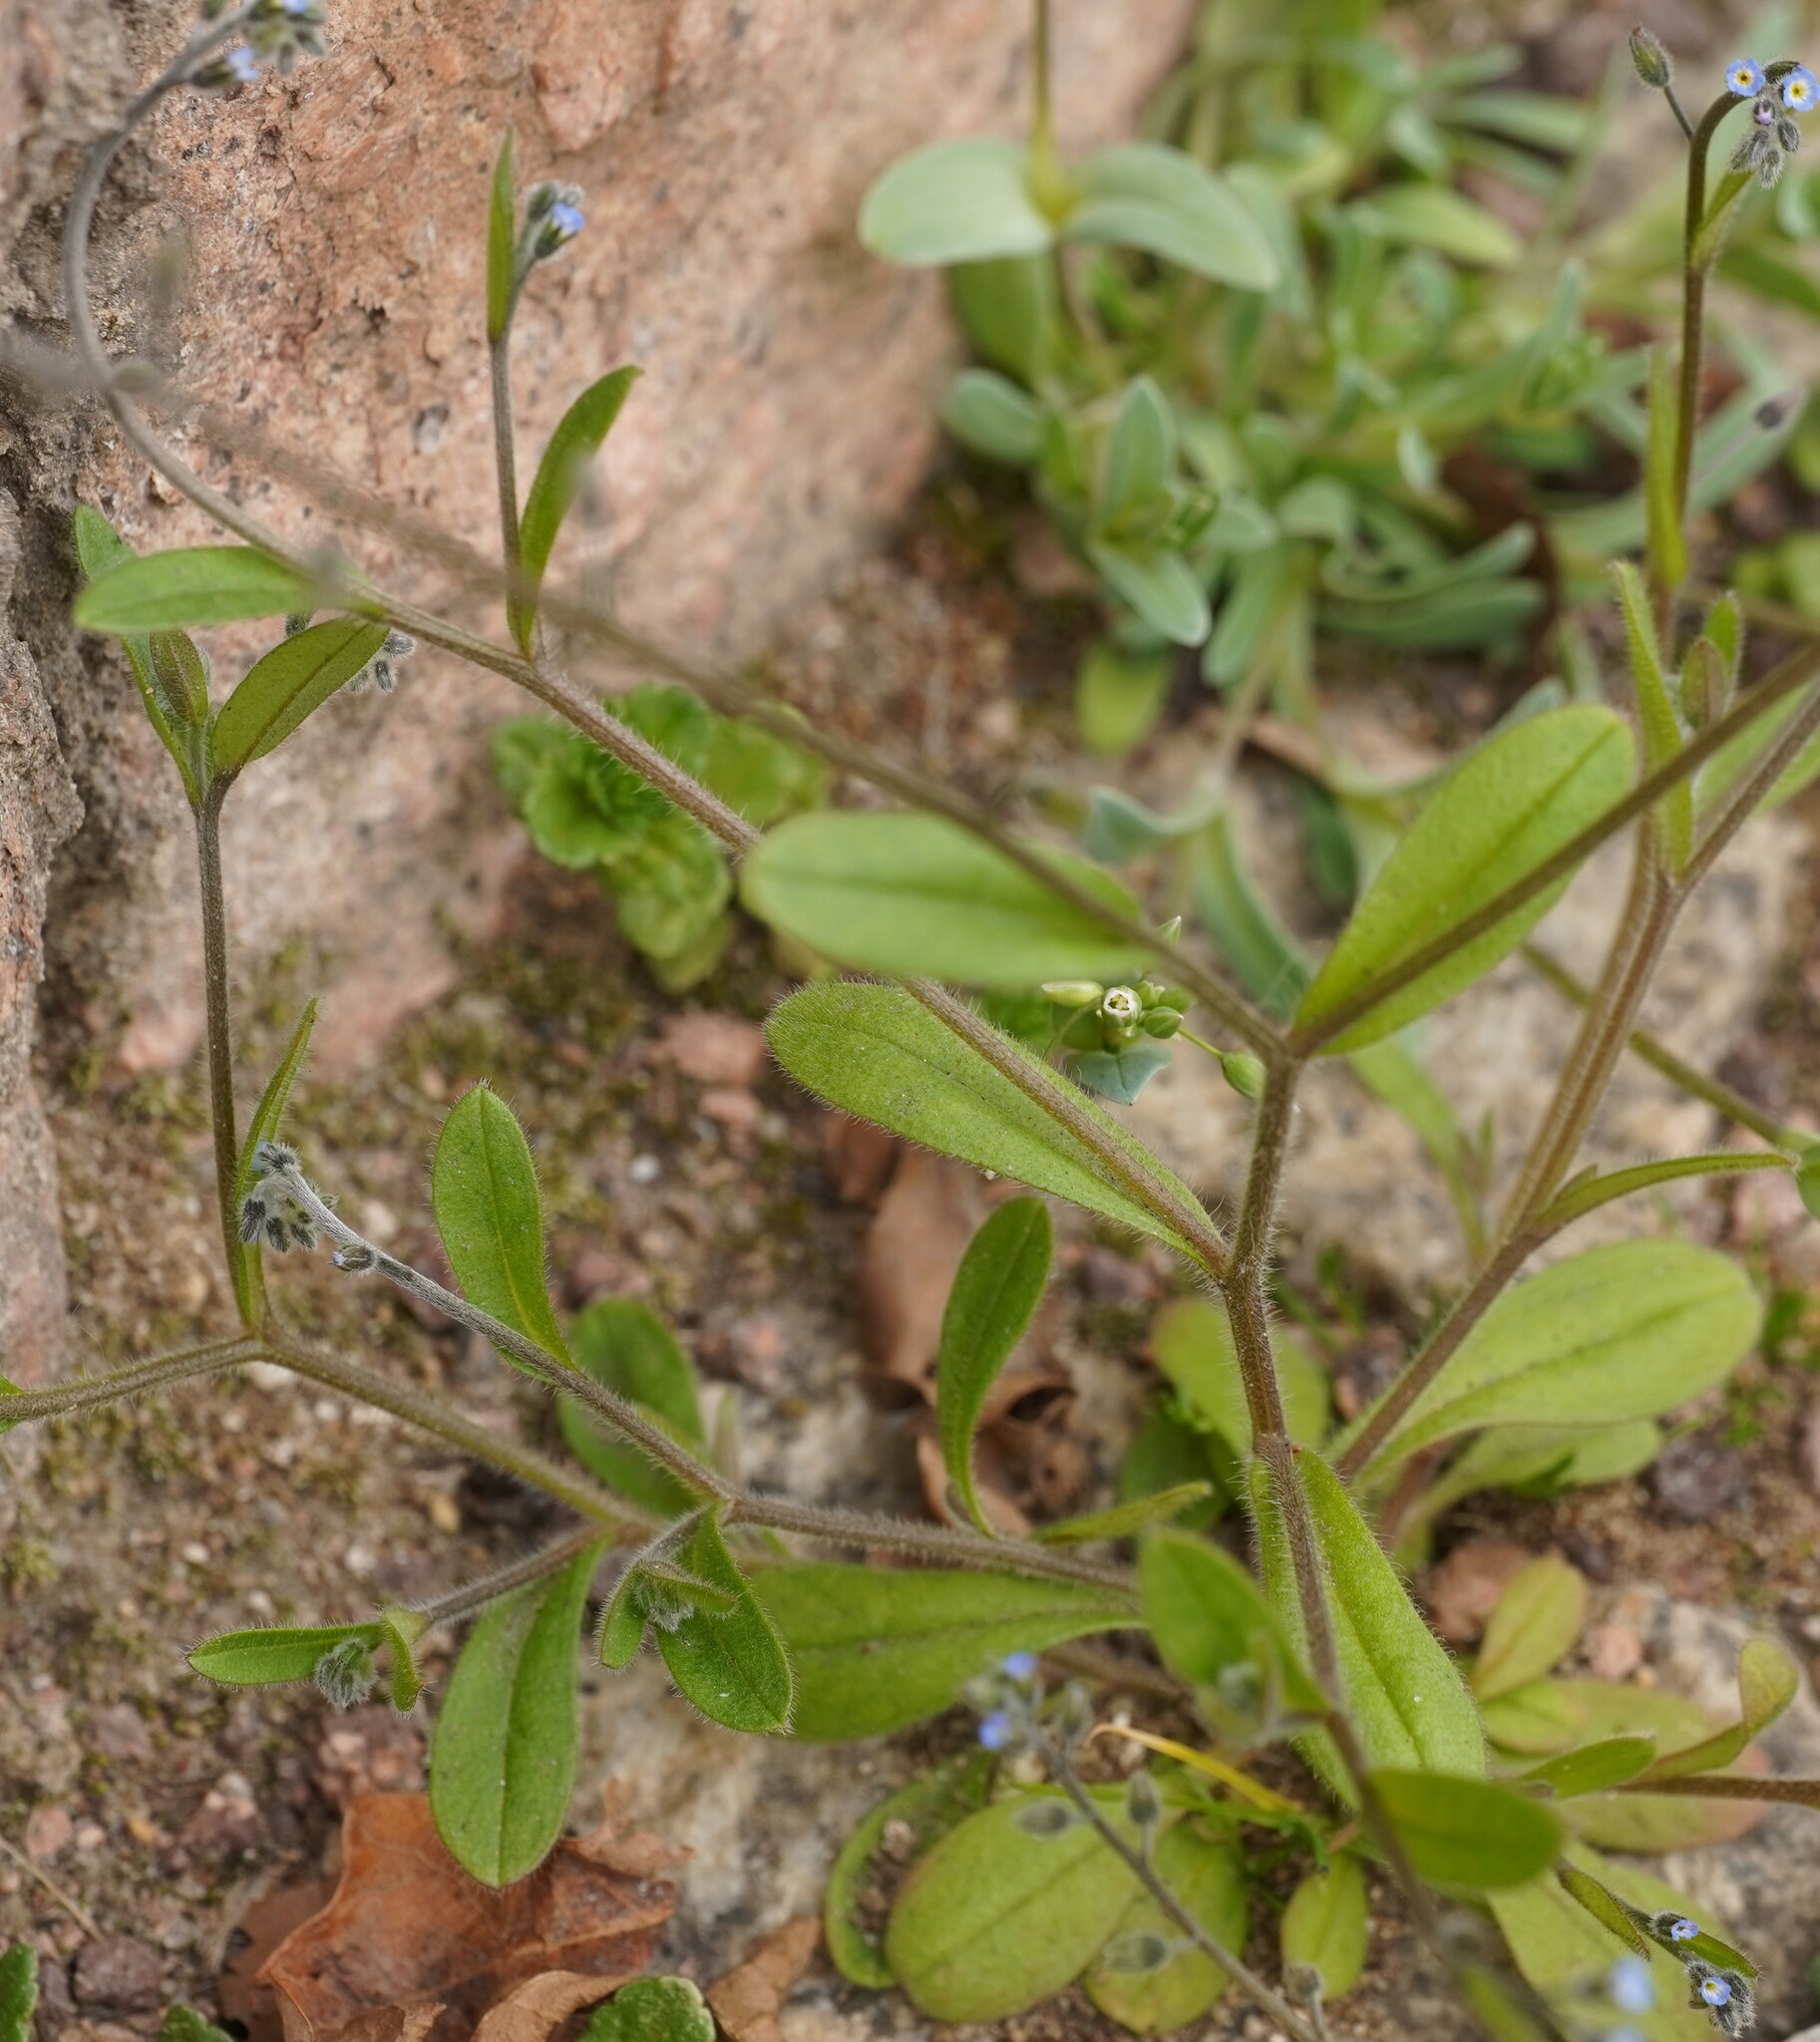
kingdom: Plantae
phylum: Tracheophyta
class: Magnoliopsida
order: Boraginales
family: Boraginaceae
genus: Myosotis
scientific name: Myosotis ramosissima
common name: Early forget-me-not
